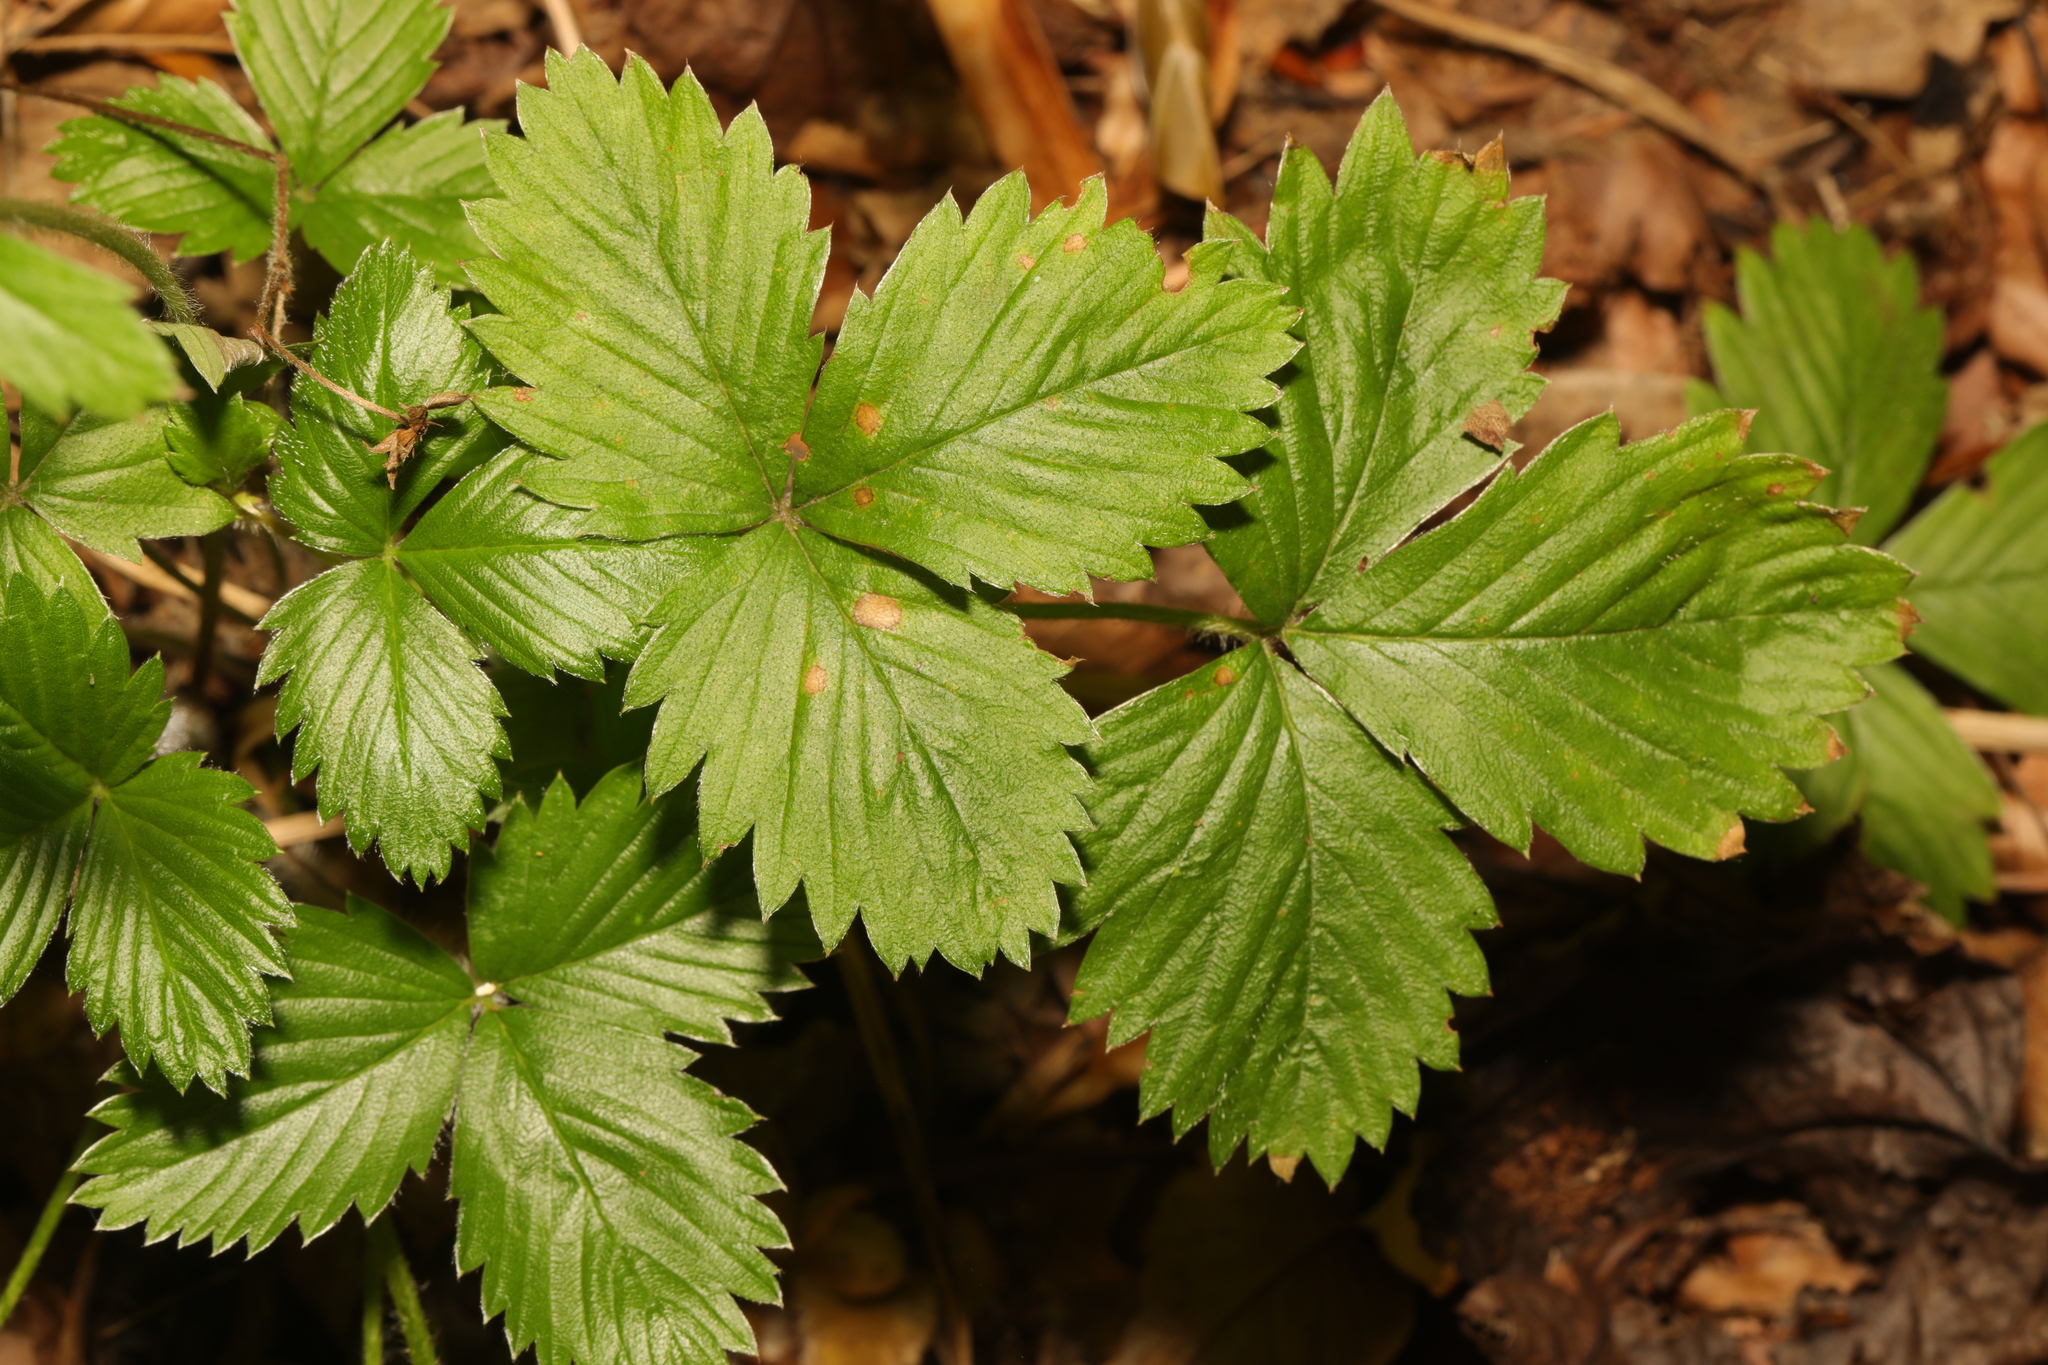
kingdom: Plantae
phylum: Tracheophyta
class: Magnoliopsida
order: Rosales
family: Rosaceae
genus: Fragaria
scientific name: Fragaria vesca
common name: Wild strawberry
